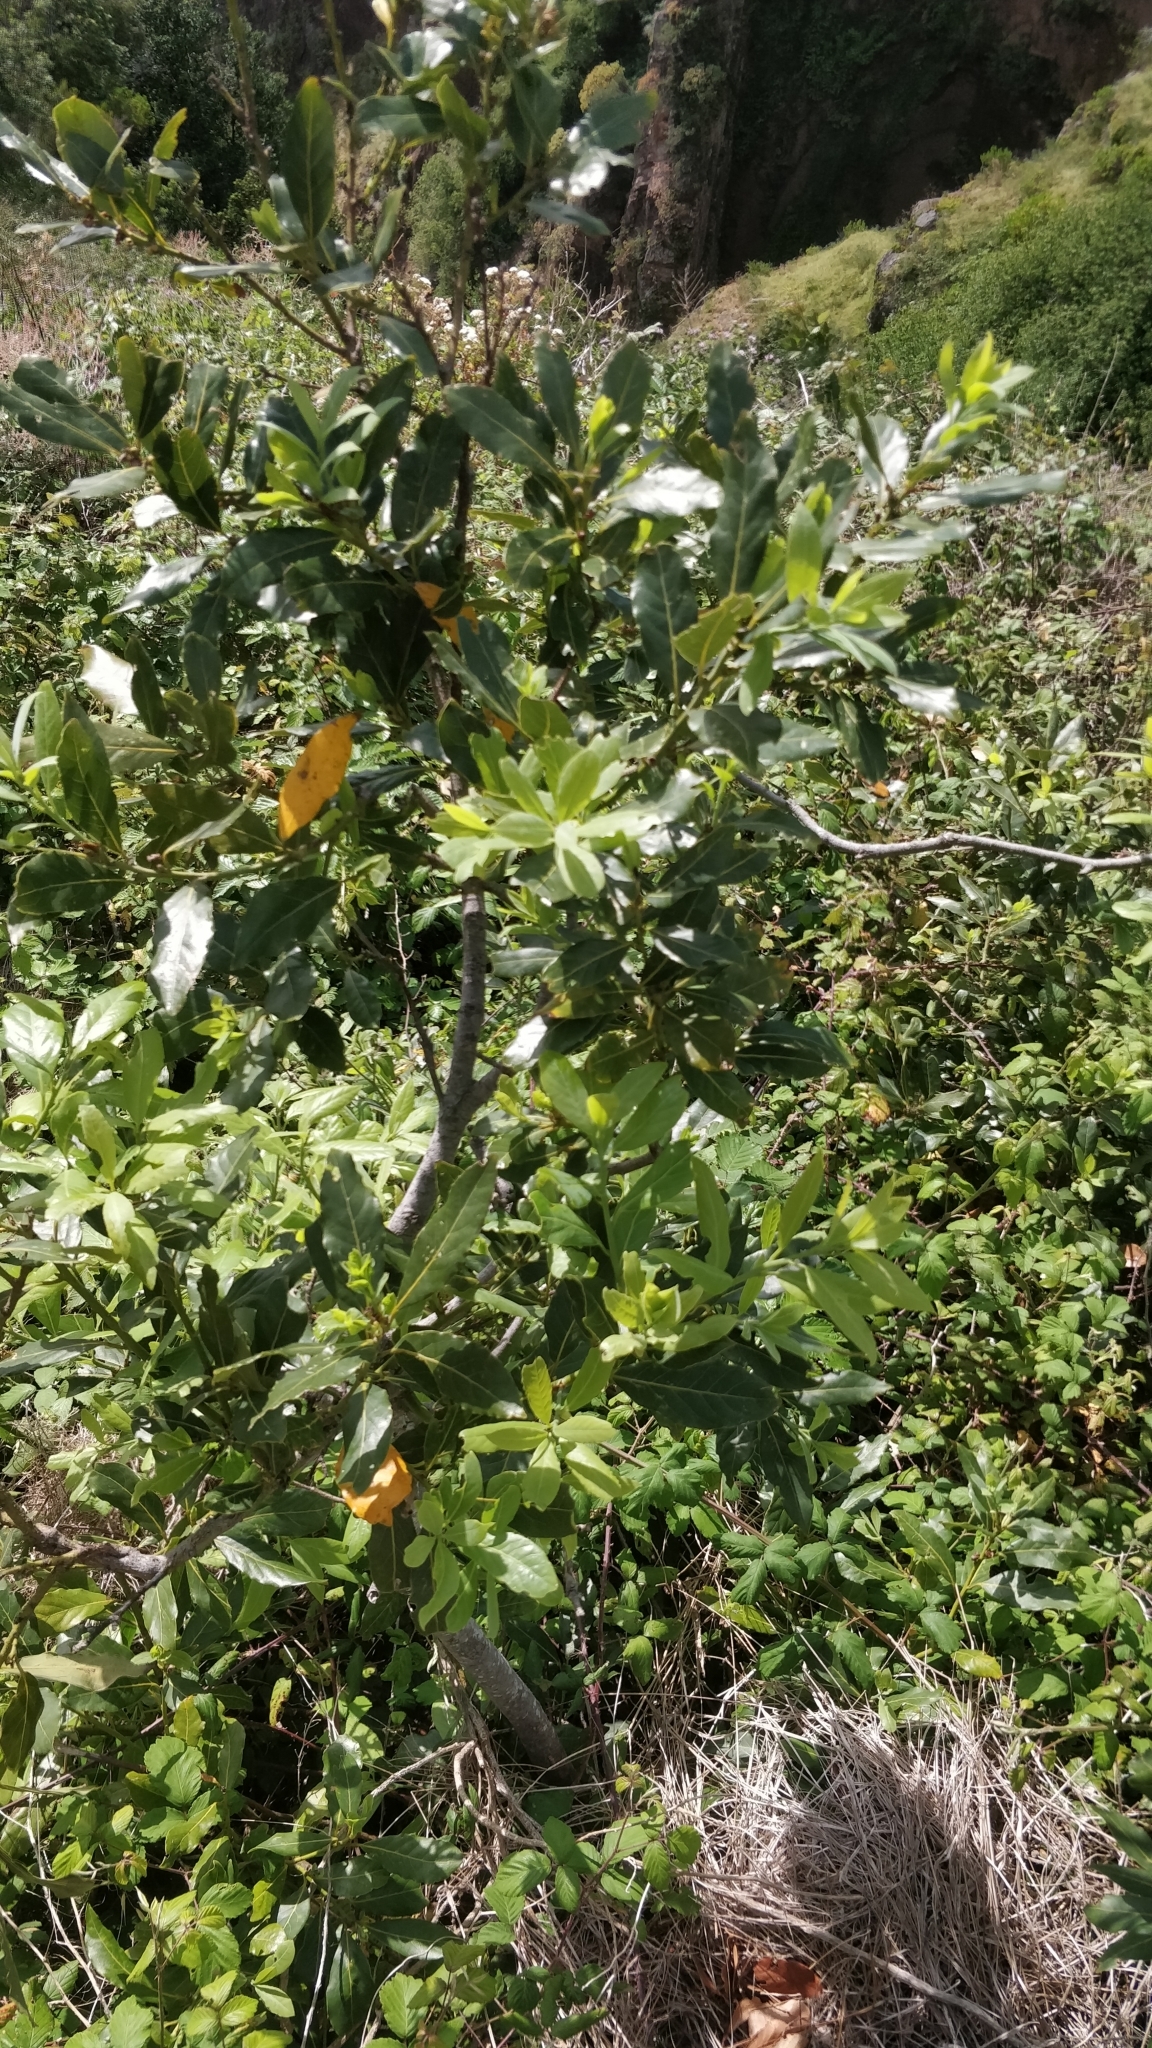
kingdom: Plantae
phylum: Tracheophyta
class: Magnoliopsida
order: Laurales
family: Lauraceae
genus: Laurus
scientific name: Laurus novocanariensis
